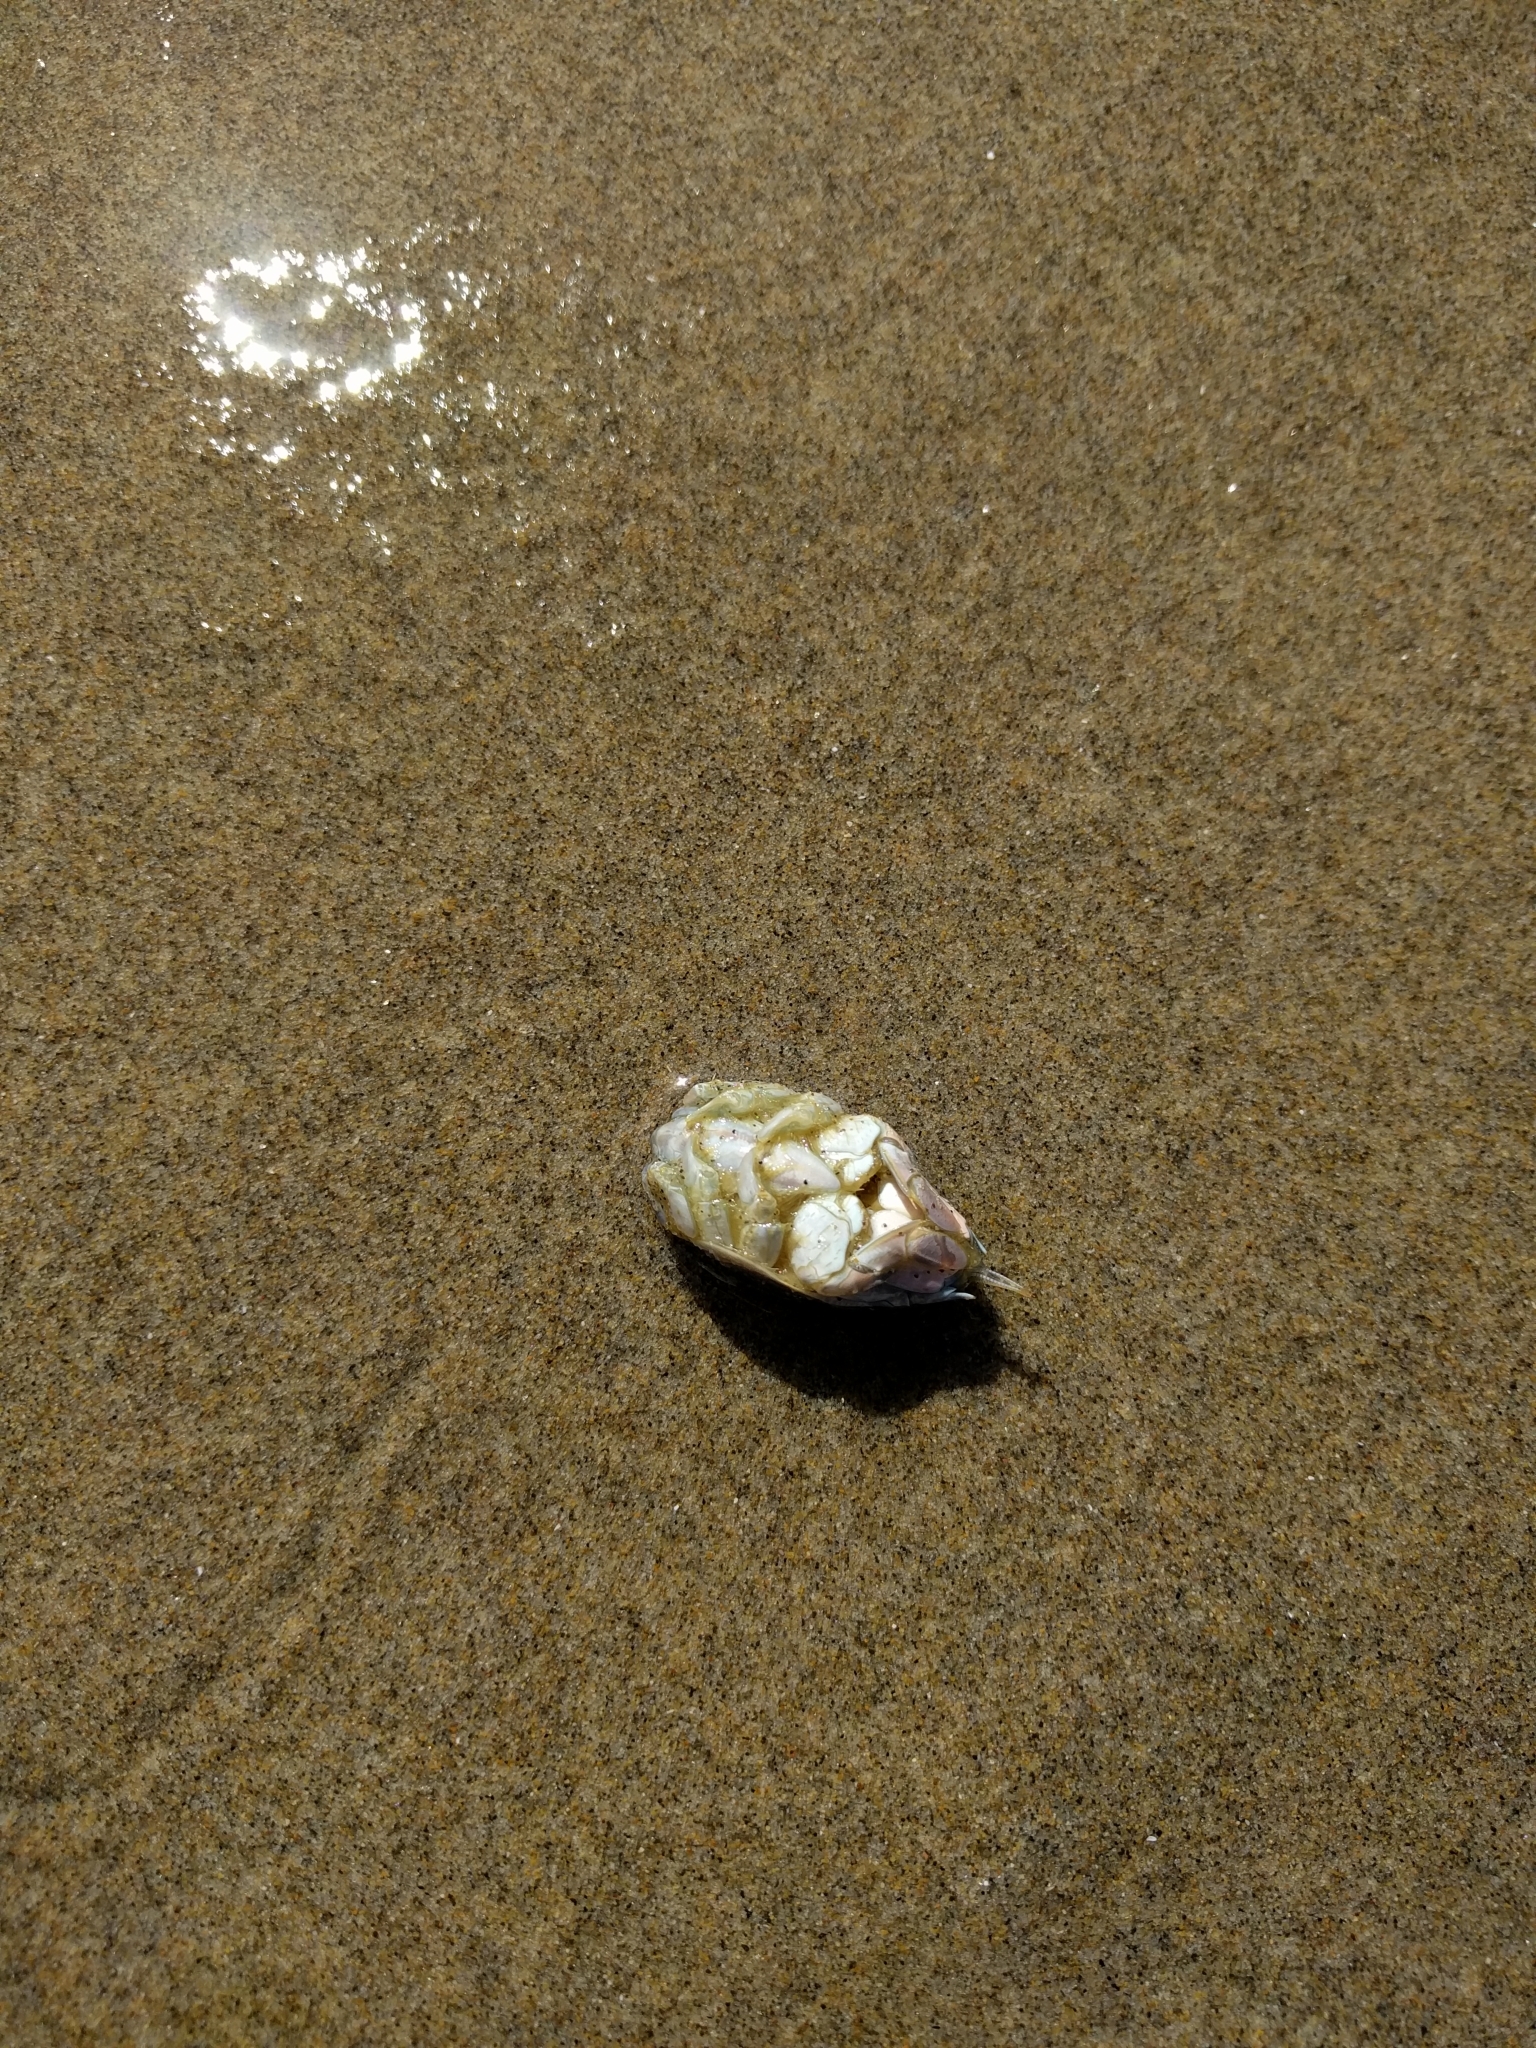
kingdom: Animalia
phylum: Arthropoda
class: Malacostraca
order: Decapoda
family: Hippidae
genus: Emerita
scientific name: Emerita analoga
